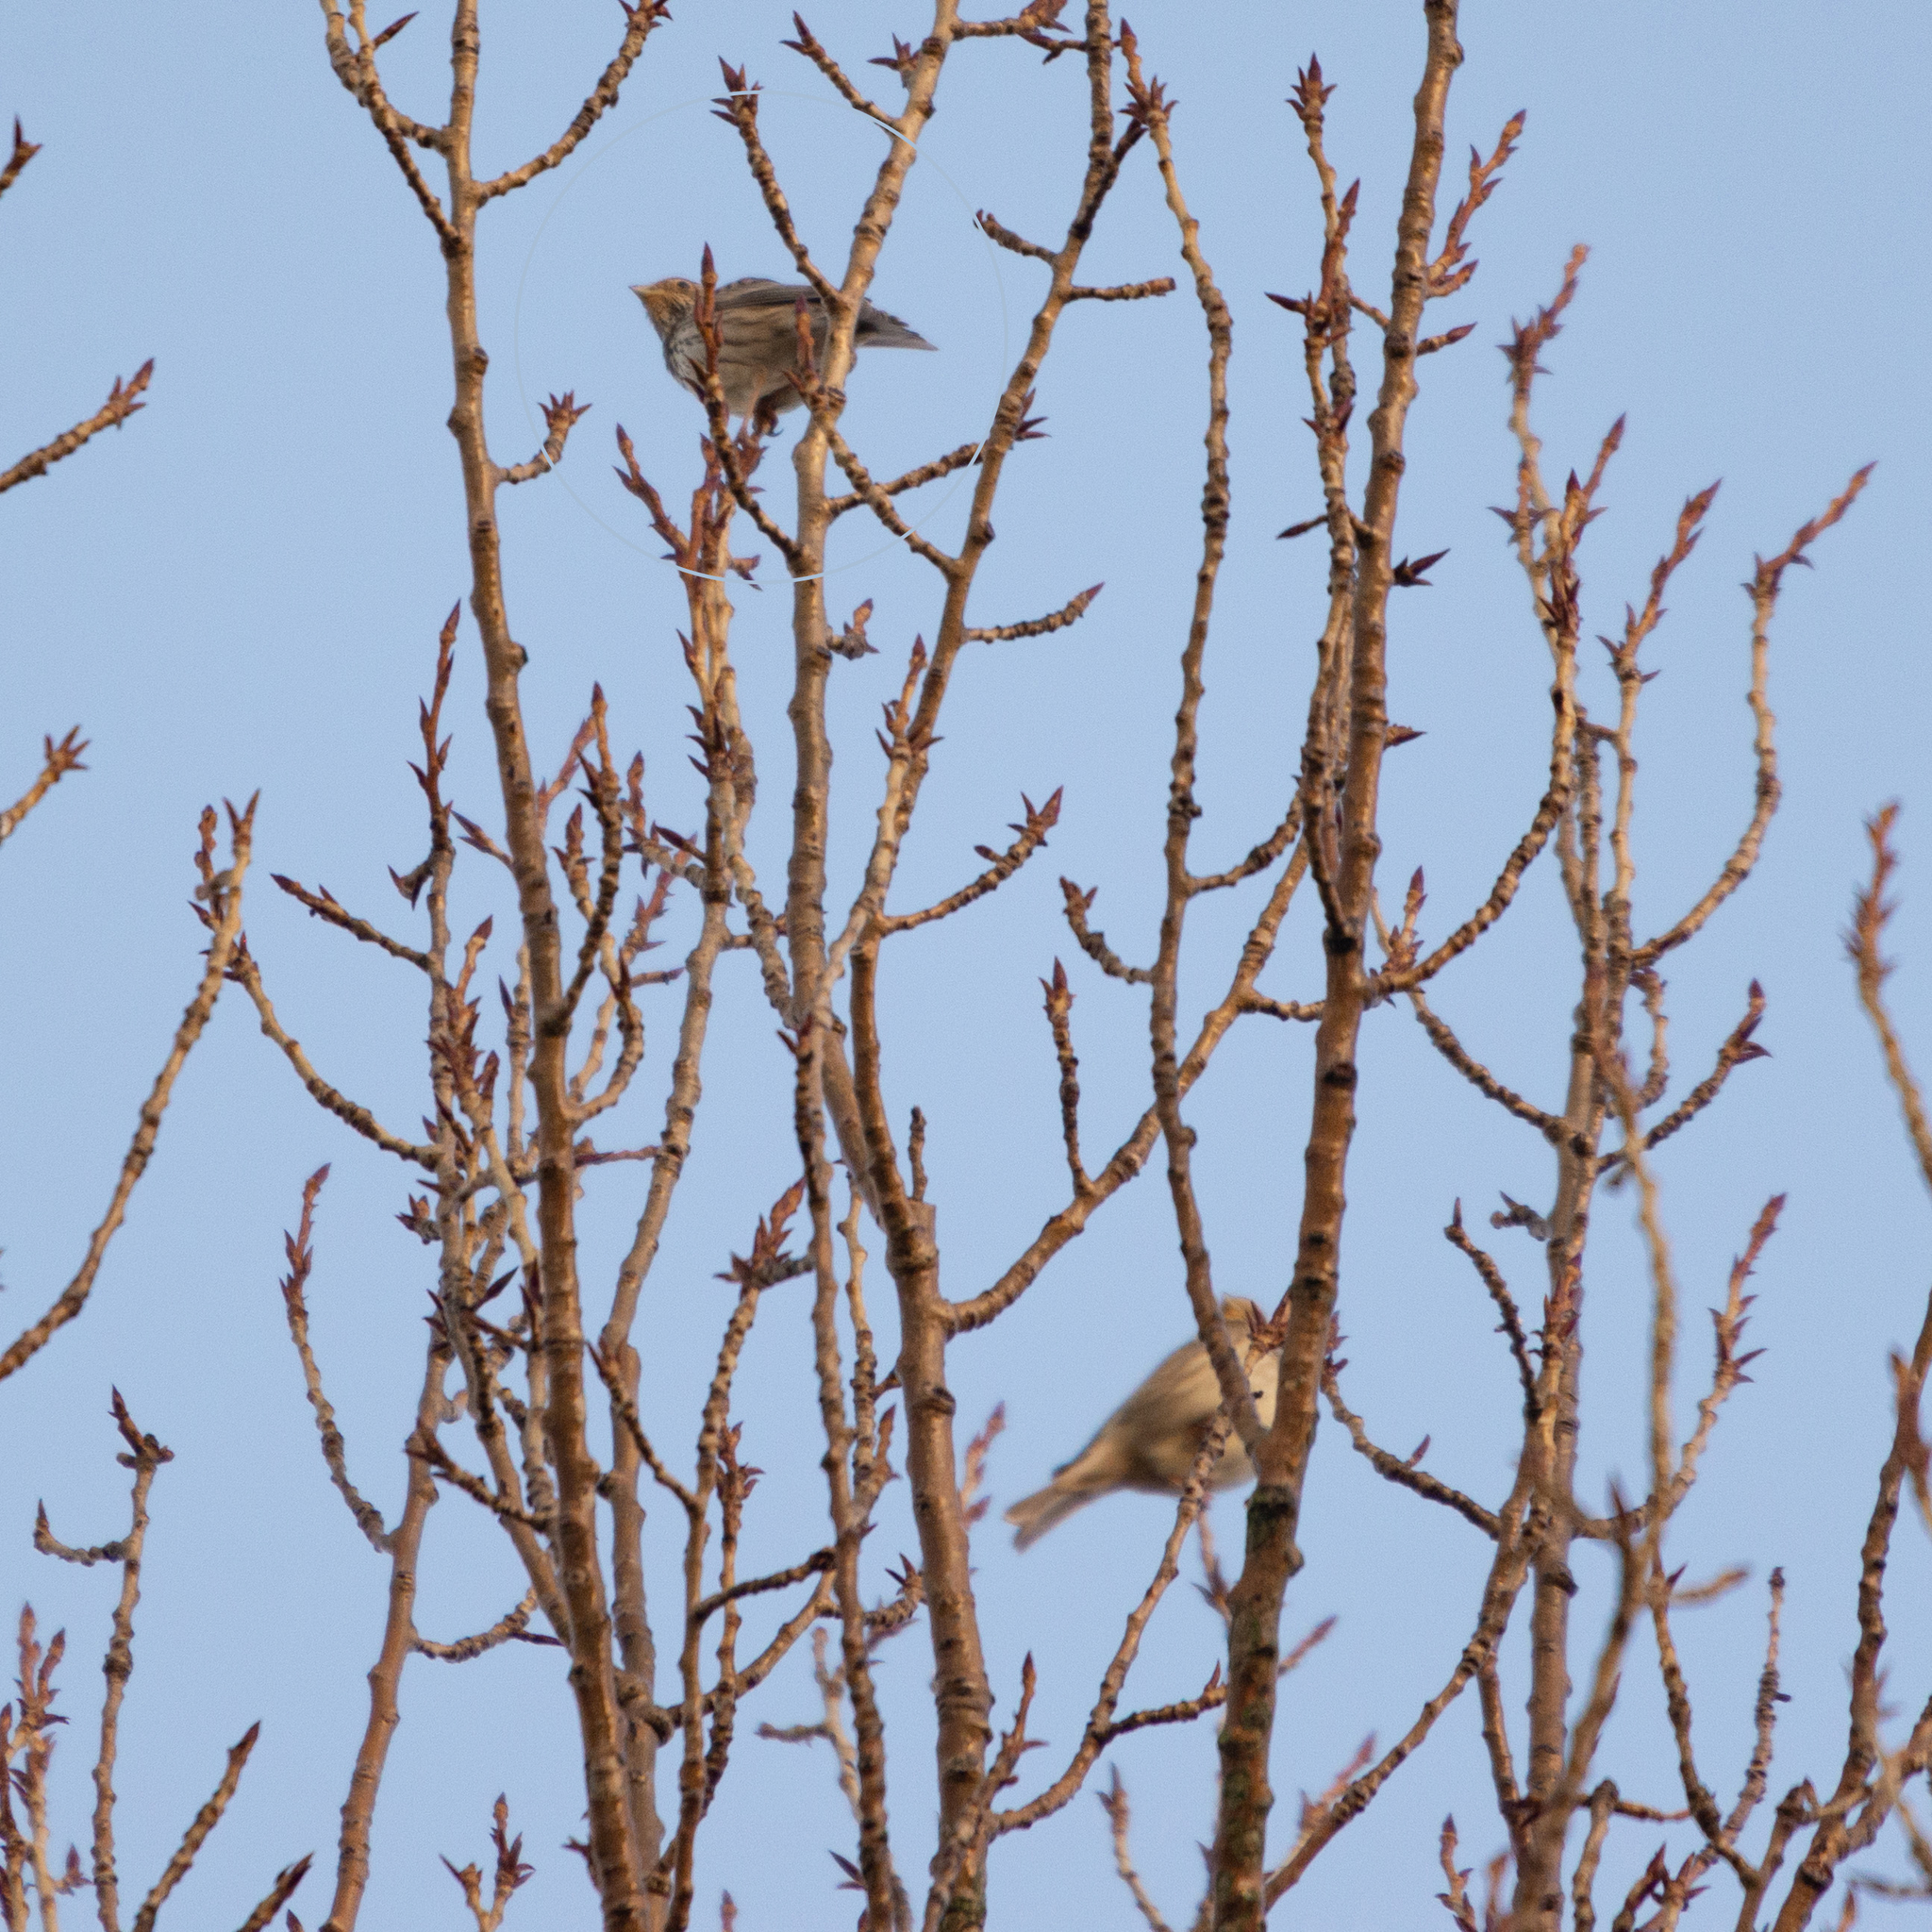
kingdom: Animalia
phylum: Chordata
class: Aves
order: Passeriformes
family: Emberizidae
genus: Emberiza
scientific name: Emberiza calandra
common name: Corn bunting
